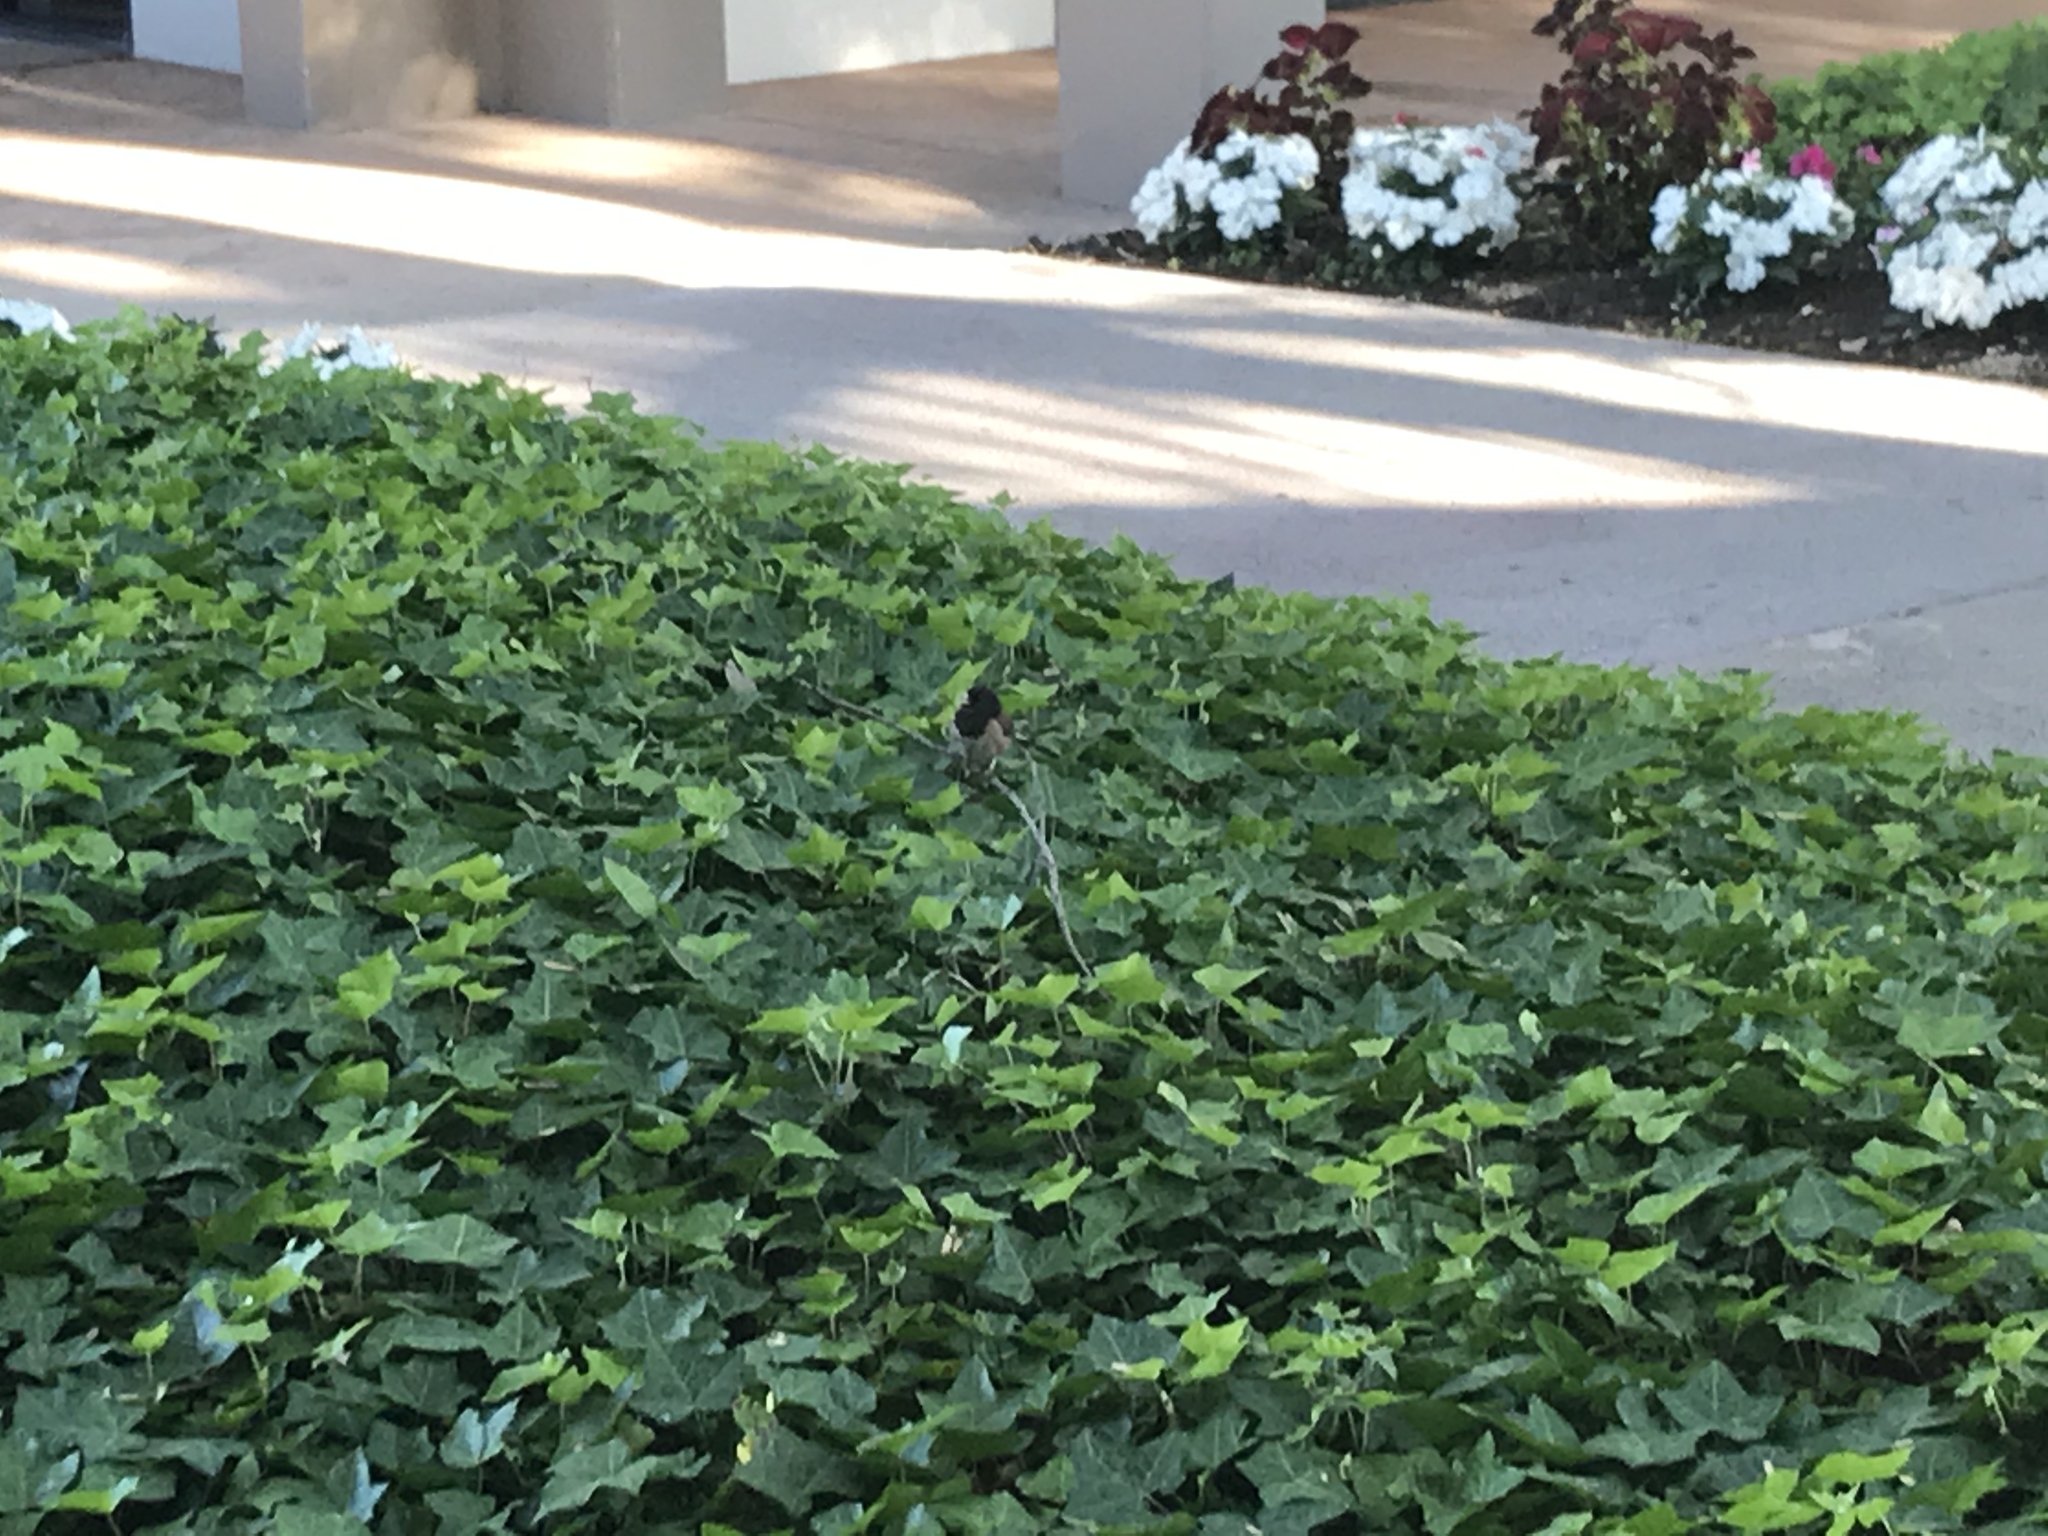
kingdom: Animalia
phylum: Chordata
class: Aves
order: Passeriformes
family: Passerellidae
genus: Junco
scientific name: Junco hyemalis
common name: Dark-eyed junco
